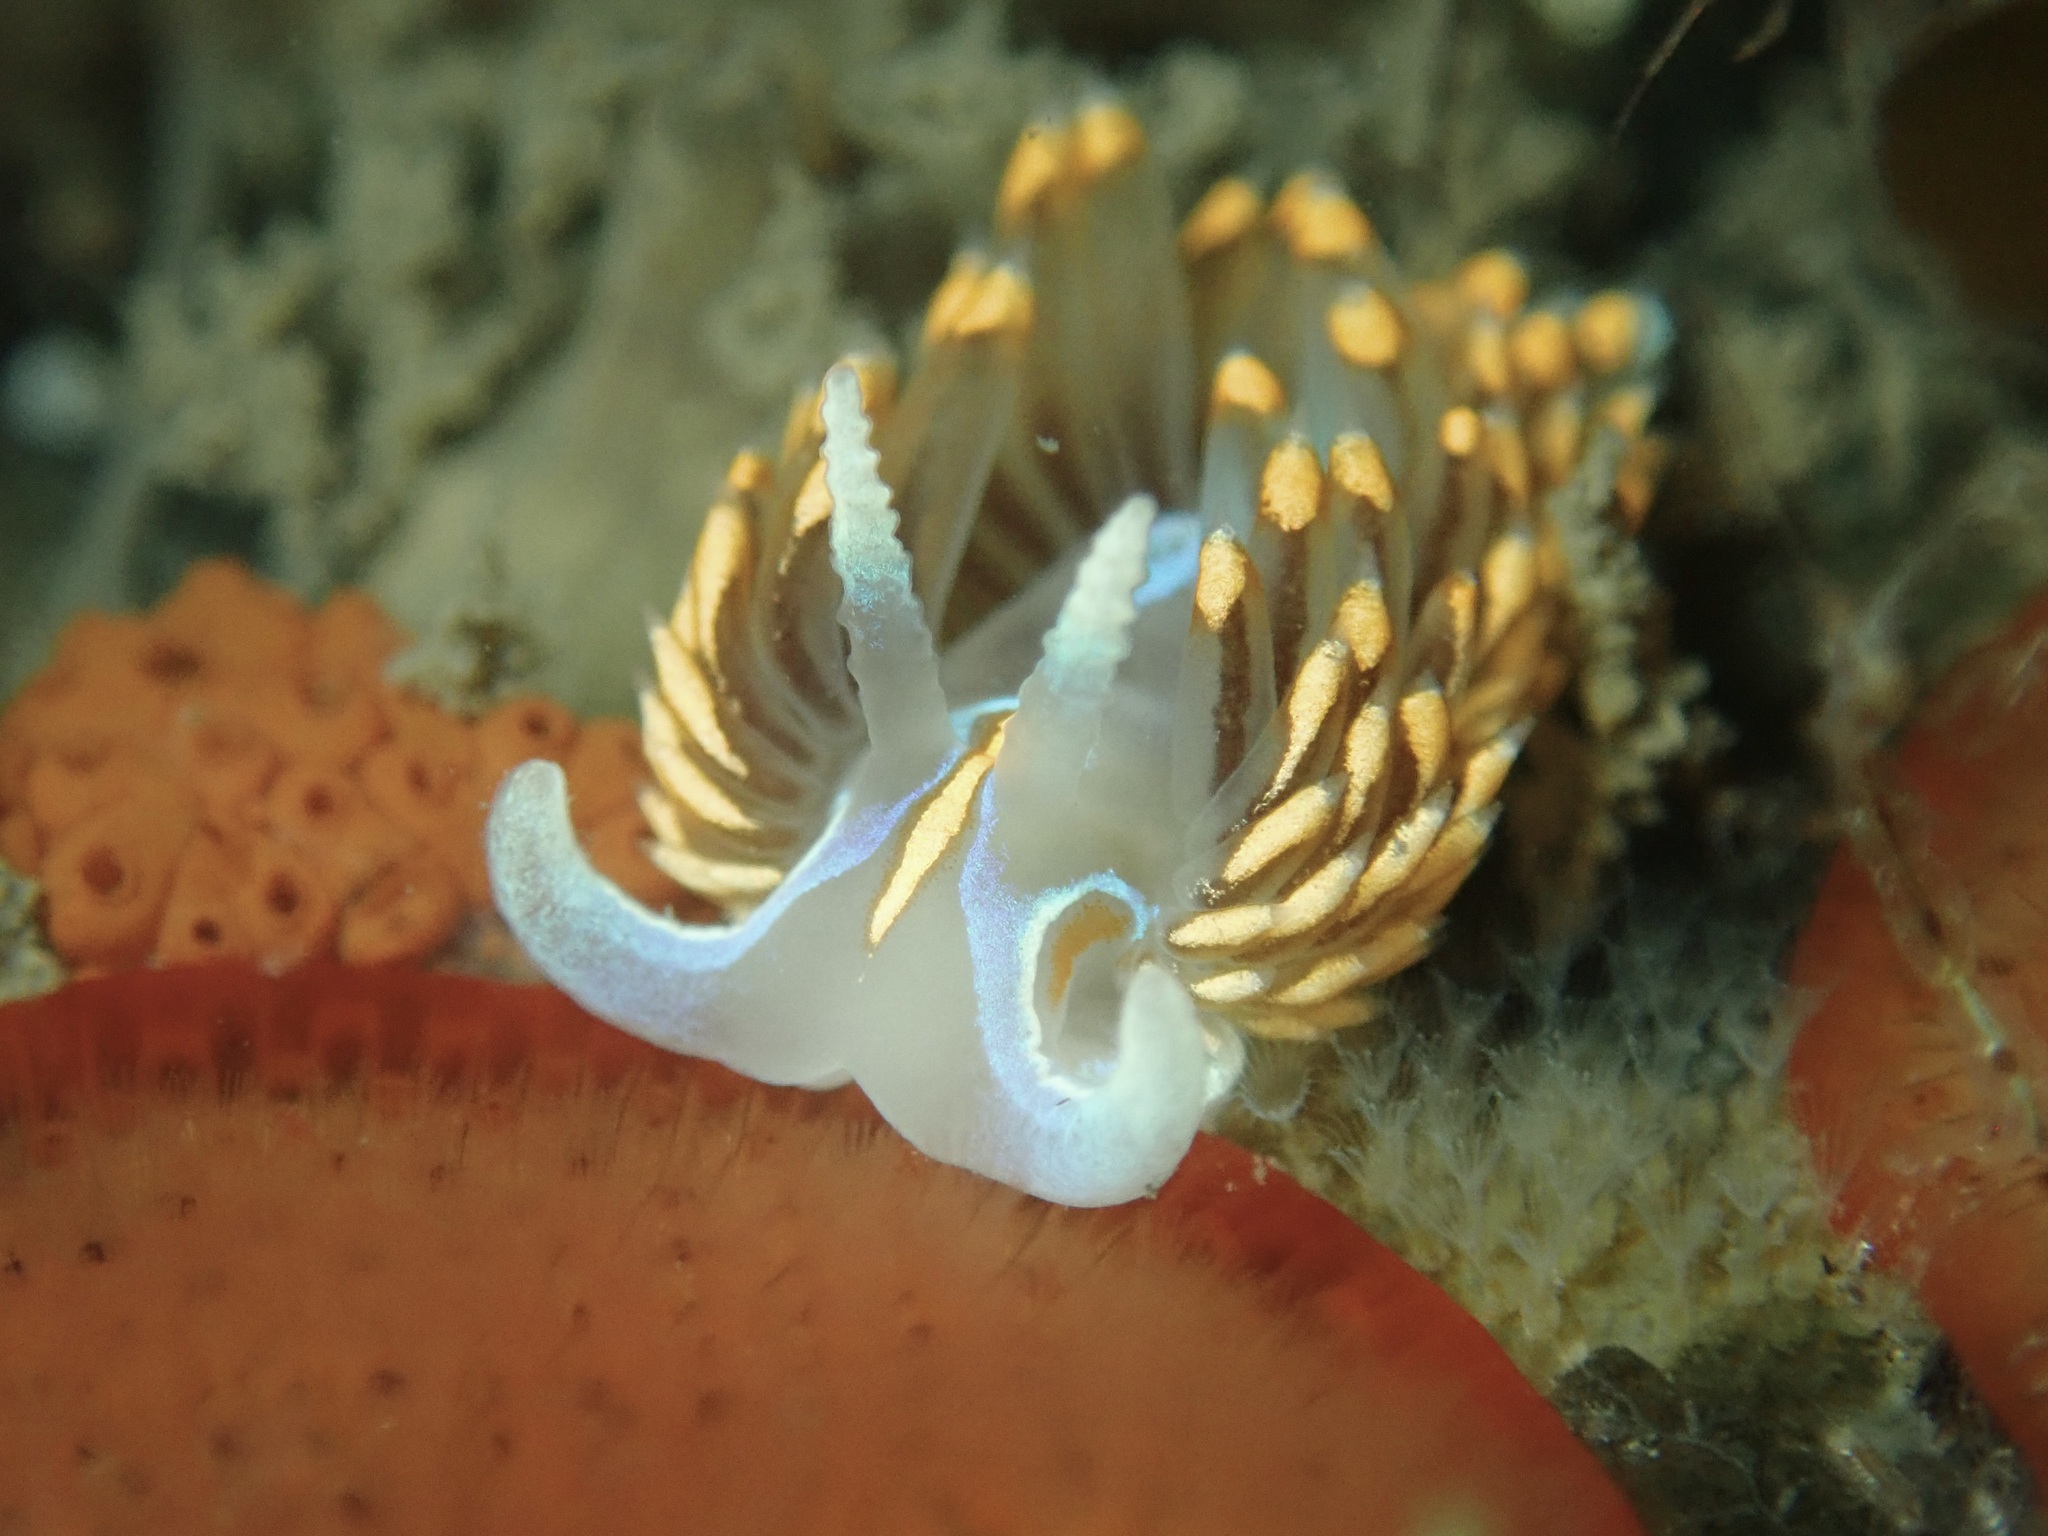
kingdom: Animalia
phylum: Mollusca
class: Gastropoda
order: Nudibranchia
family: Myrrhinidae
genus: Hermissenda
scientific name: Hermissenda opalescens
